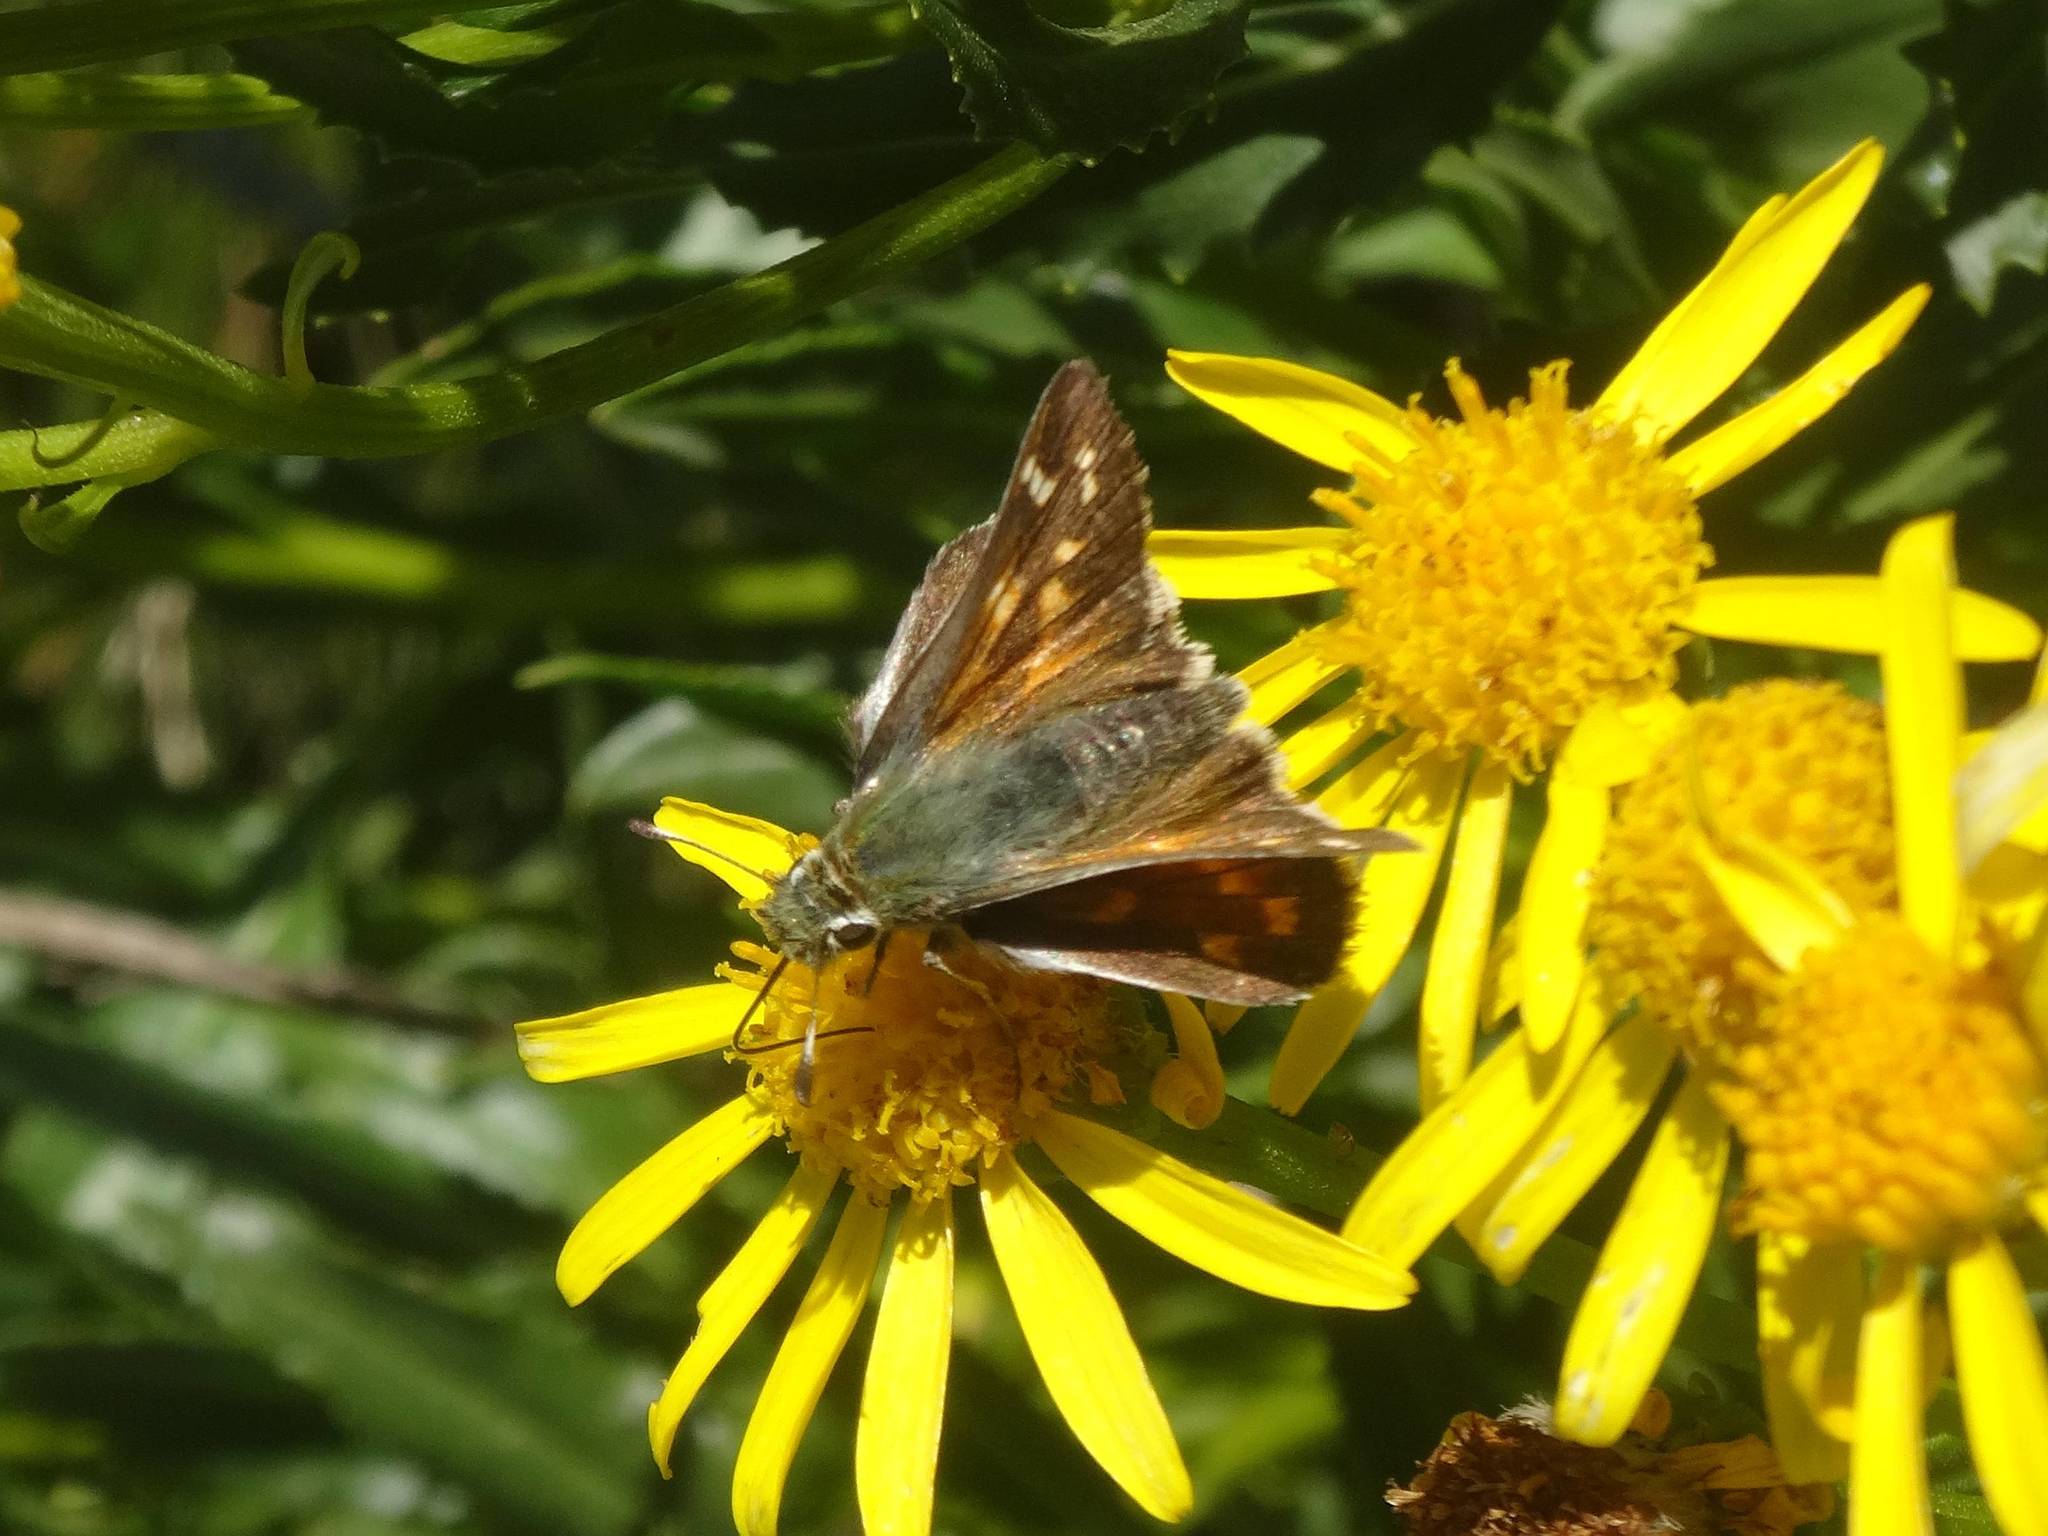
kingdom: Animalia
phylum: Arthropoda
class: Insecta
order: Lepidoptera
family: Hesperiidae
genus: Hesperia
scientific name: Hesperia comma
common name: Common branded skipper
